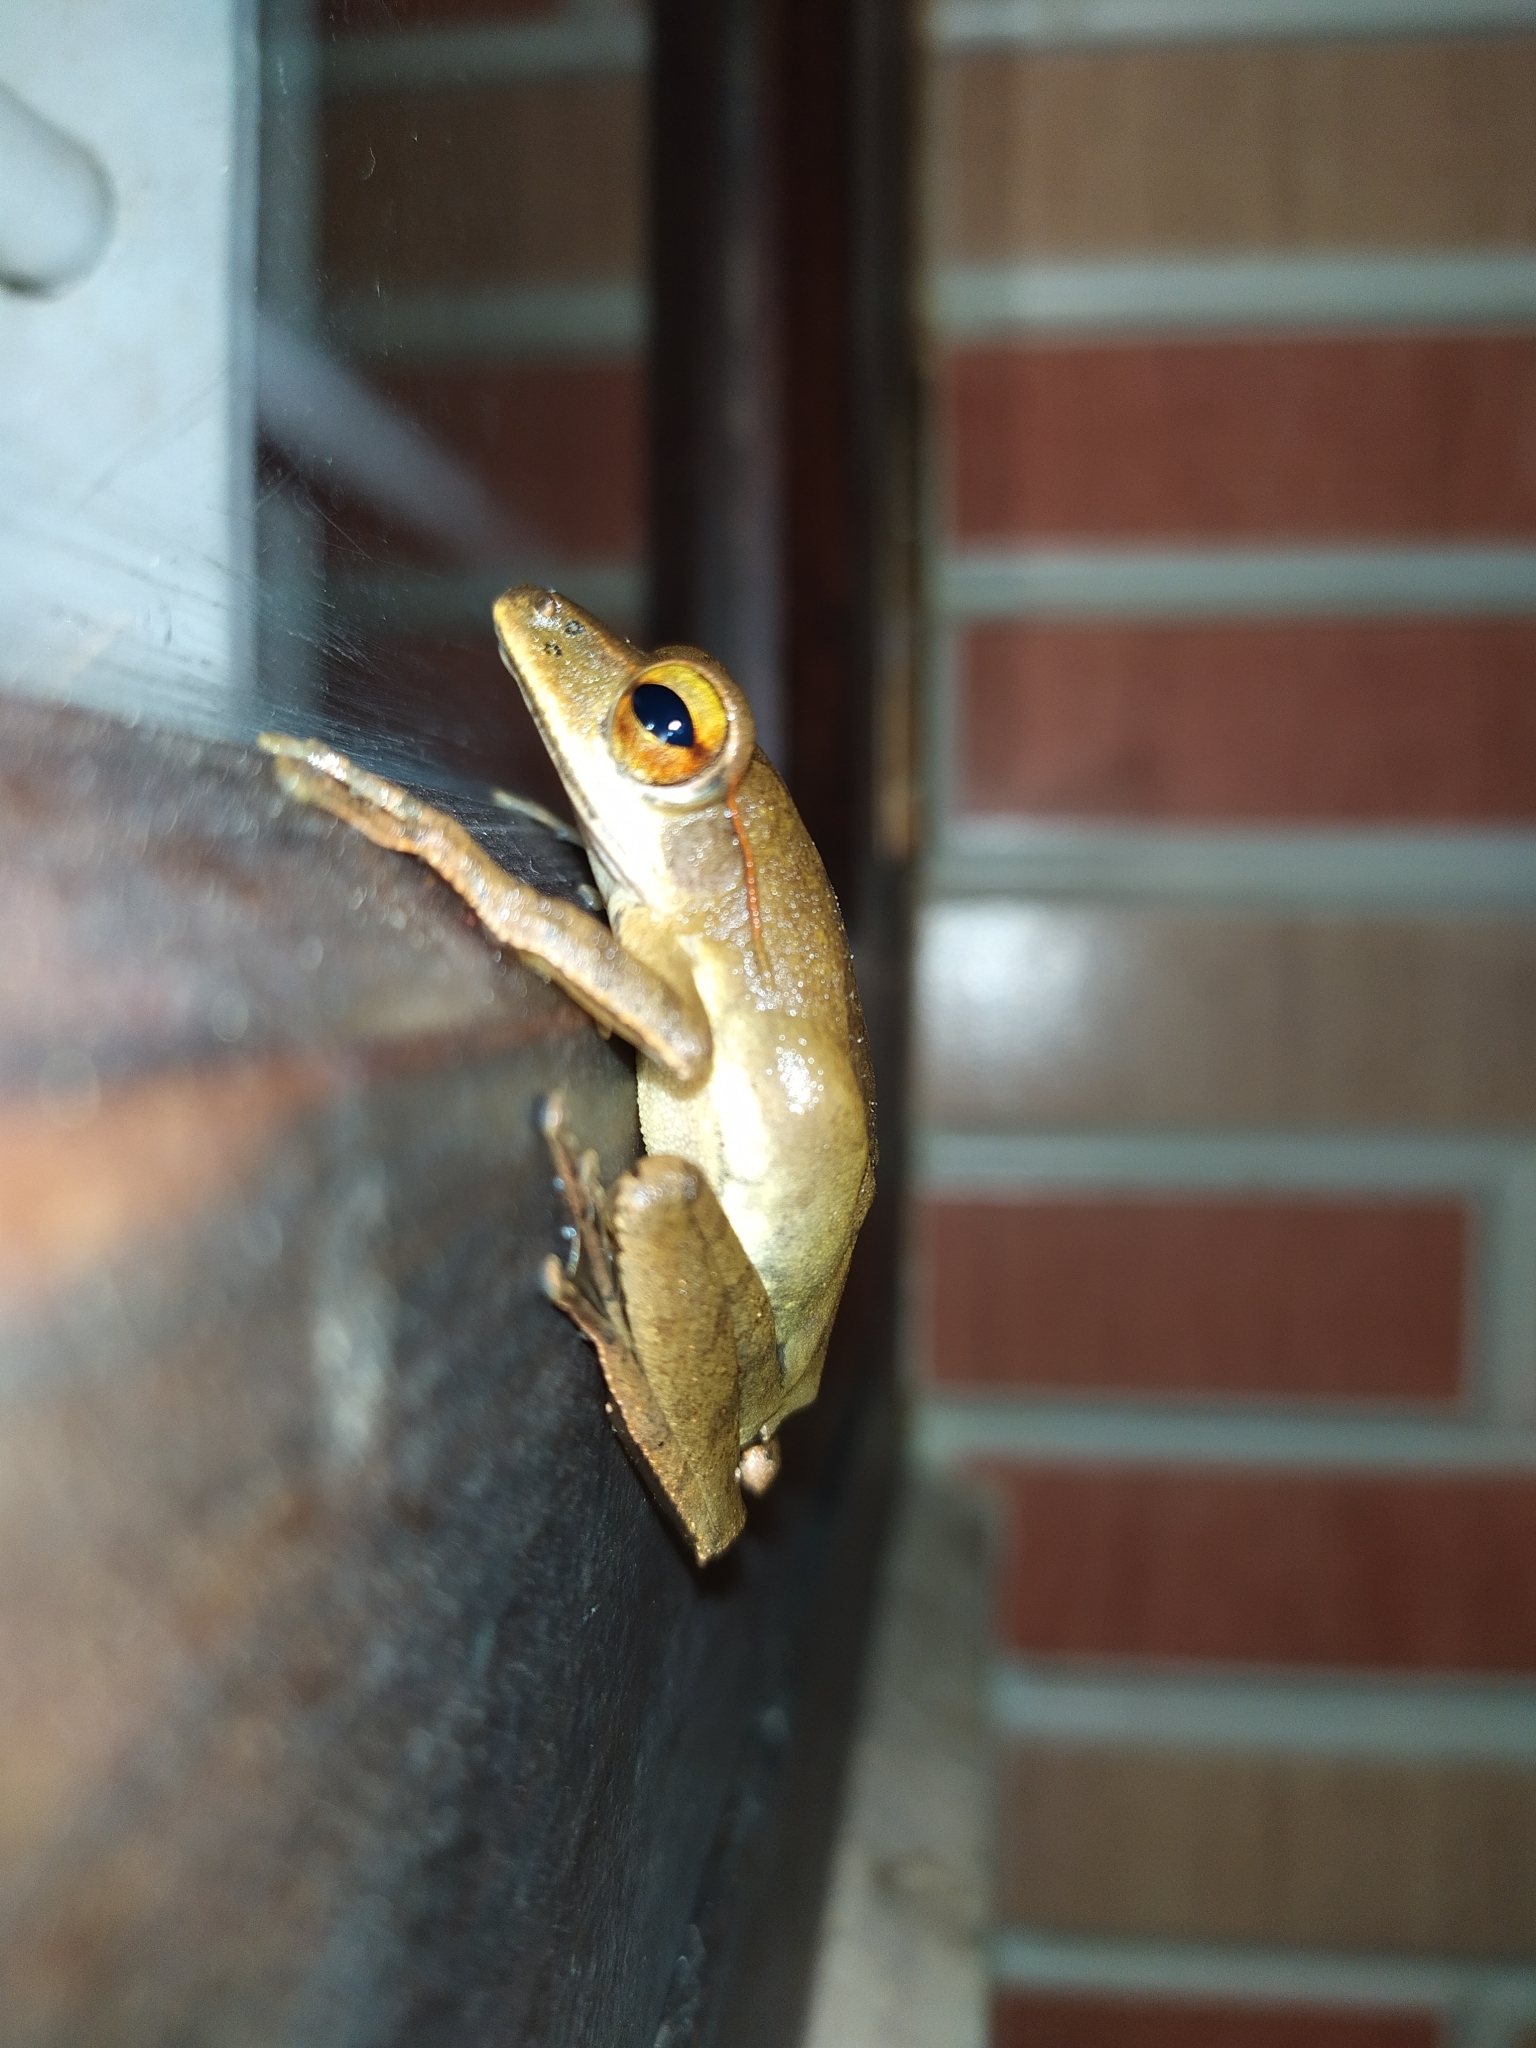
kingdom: Animalia
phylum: Chordata
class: Amphibia
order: Anura
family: Rhacophoridae
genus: Polypedates
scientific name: Polypedates occidentalis
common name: Charpa tree frog
